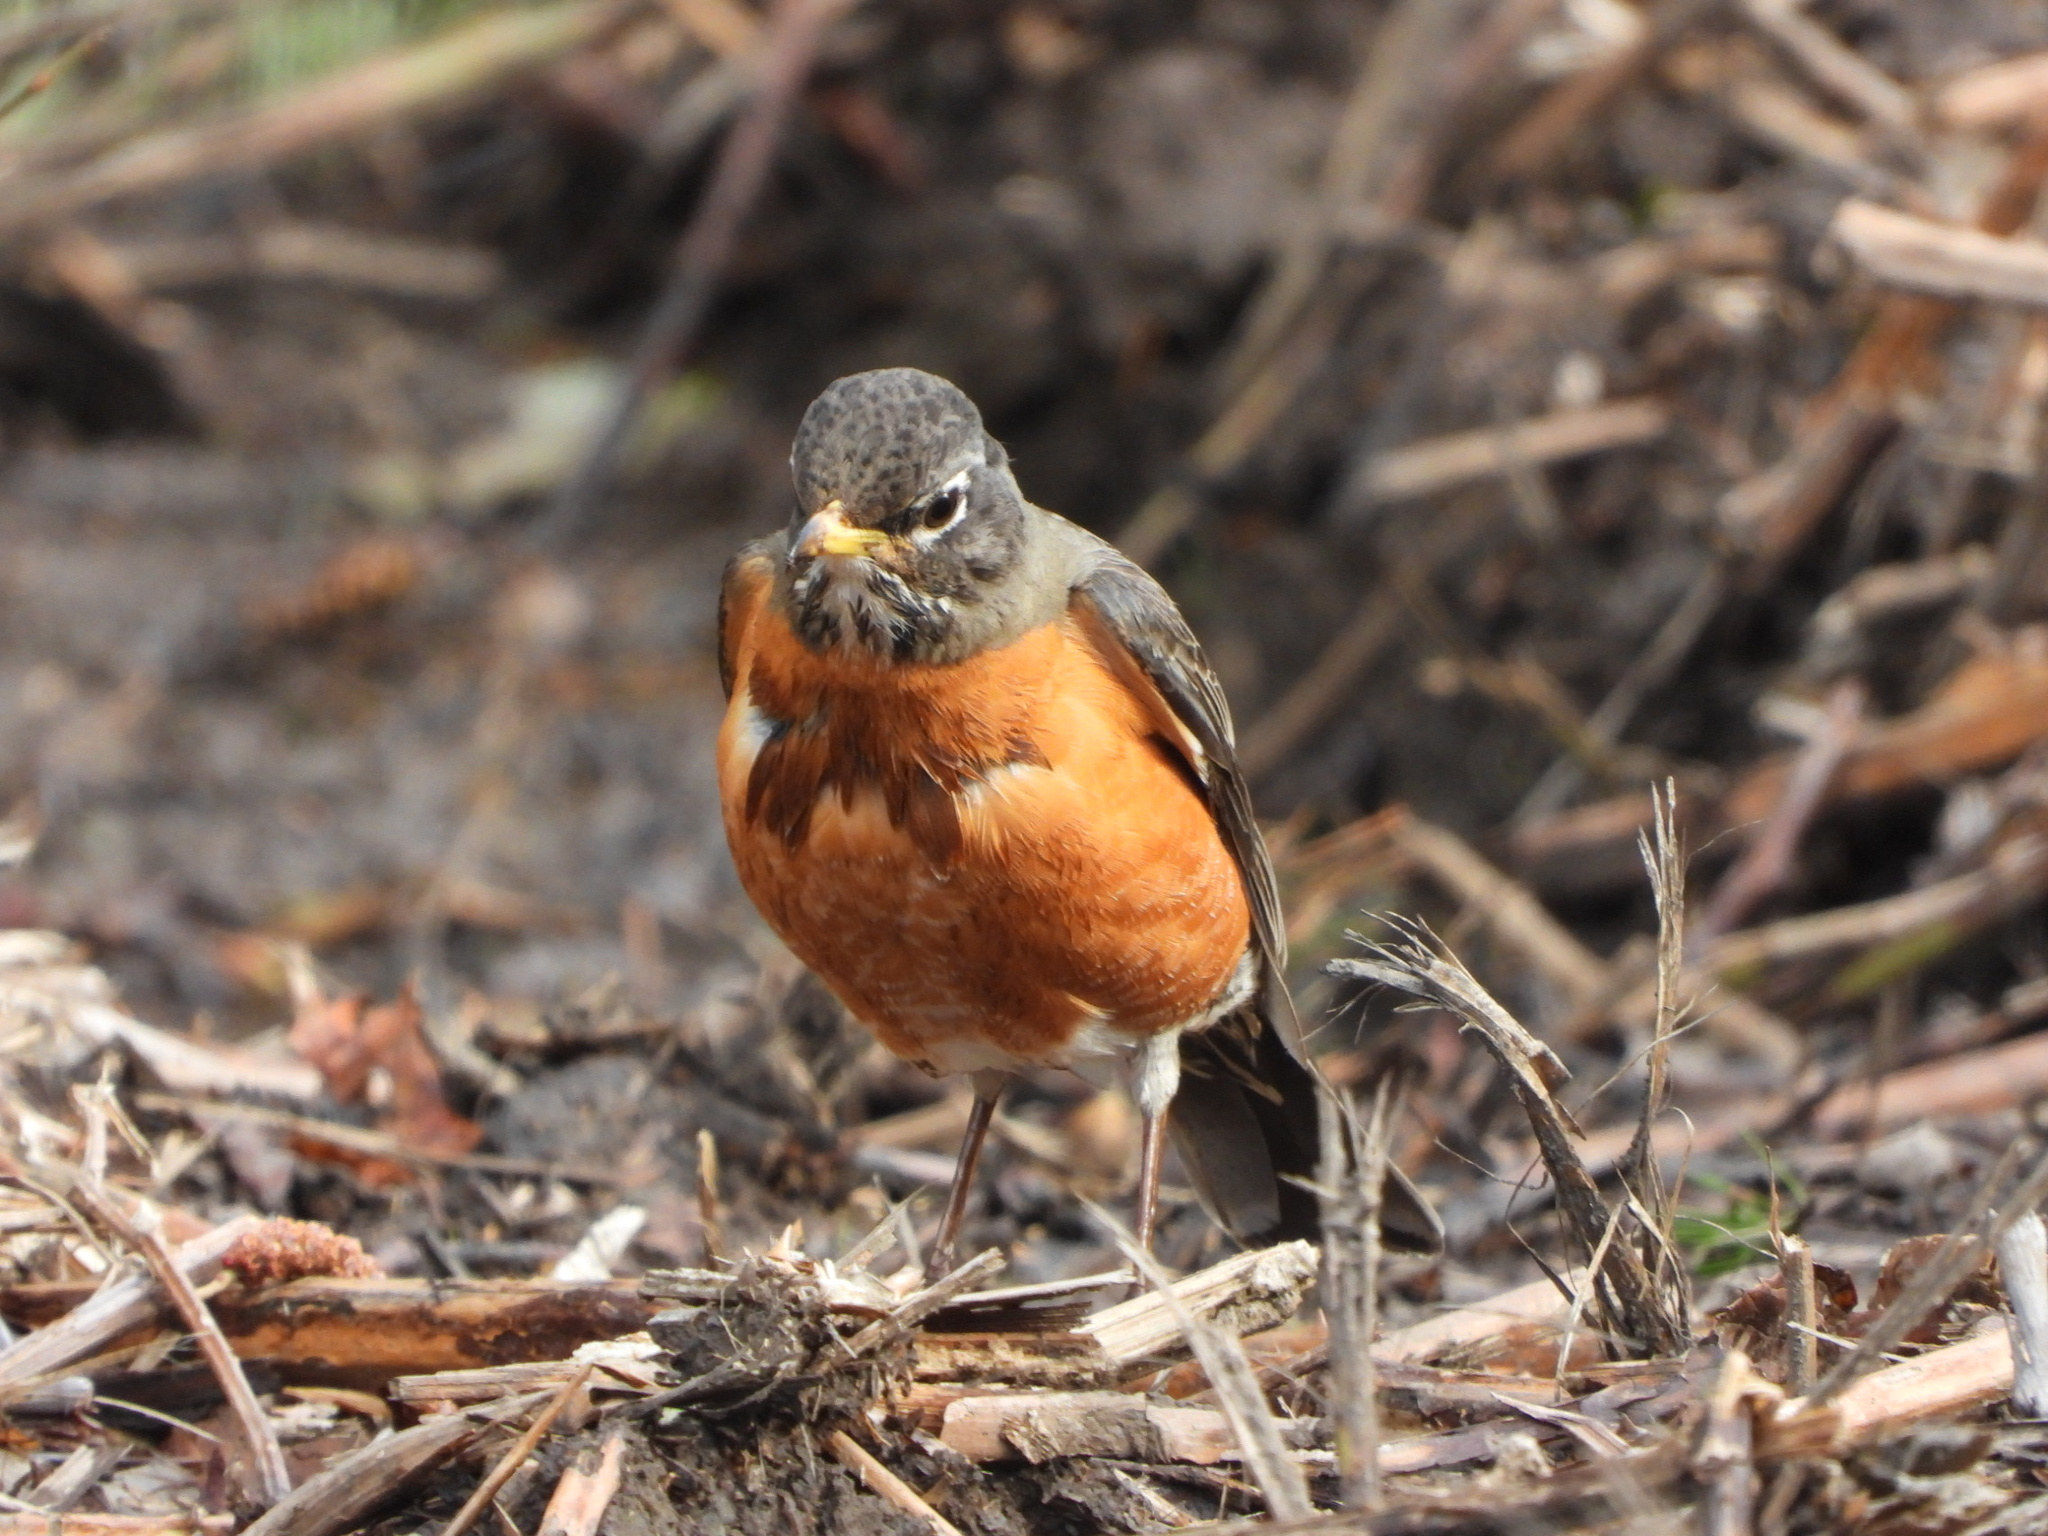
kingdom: Animalia
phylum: Chordata
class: Aves
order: Passeriformes
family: Turdidae
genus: Turdus
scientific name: Turdus migratorius
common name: American robin
